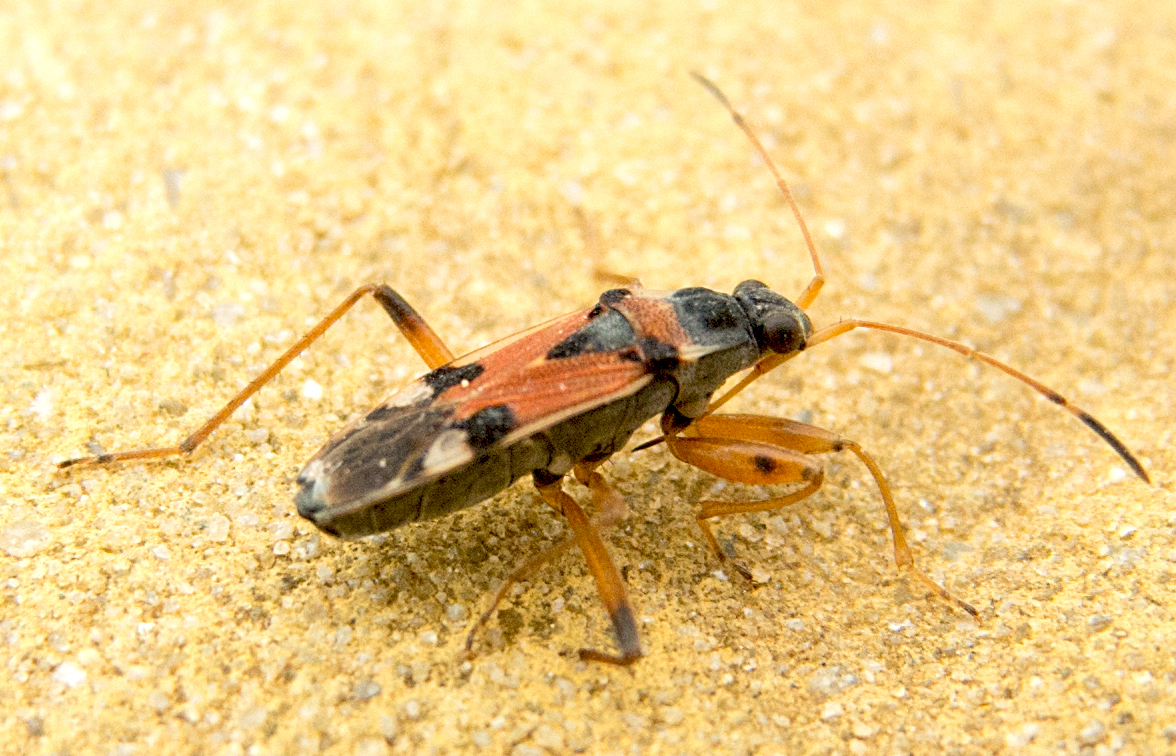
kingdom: Animalia
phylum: Arthropoda
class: Insecta
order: Hemiptera
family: Rhyparochromidae
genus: Beosus
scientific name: Beosus quadripunctatus
